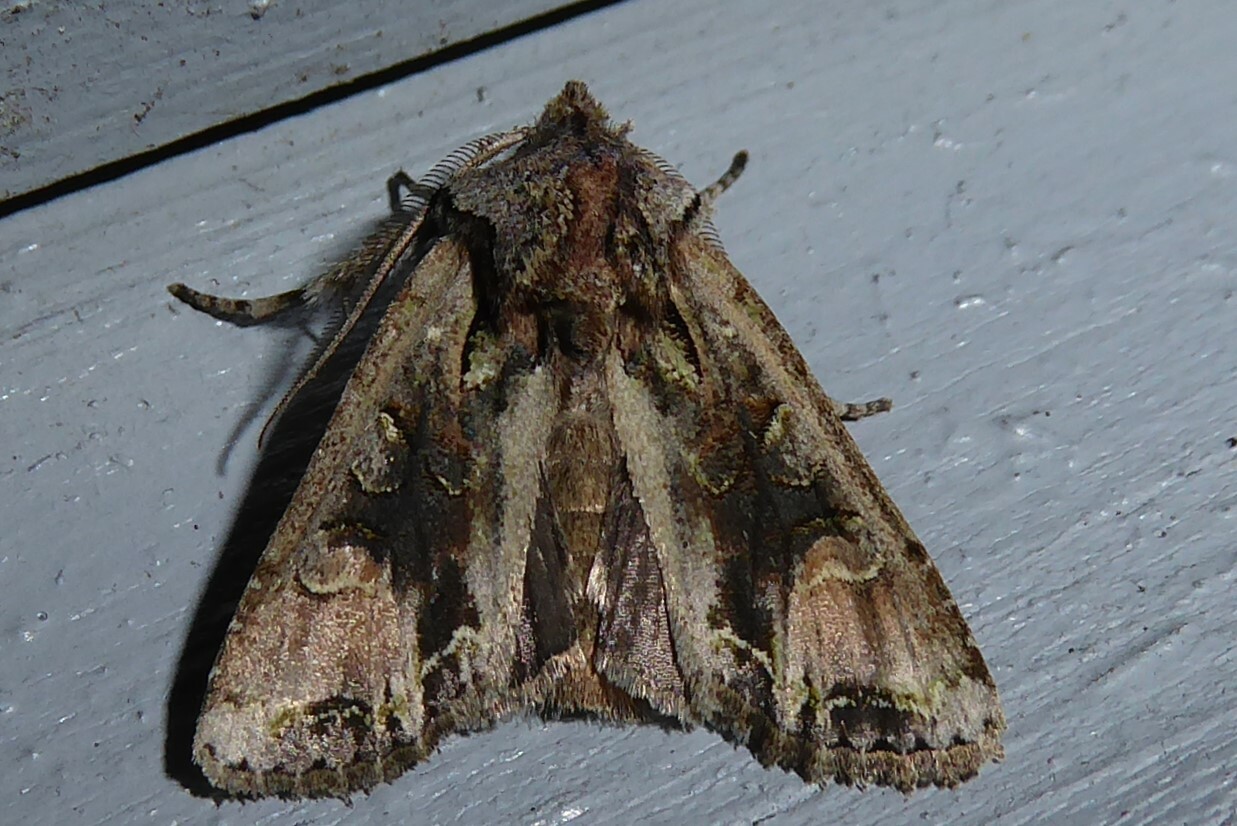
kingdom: Animalia
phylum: Arthropoda
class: Insecta
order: Lepidoptera
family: Noctuidae
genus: Ichneutica
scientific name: Ichneutica
